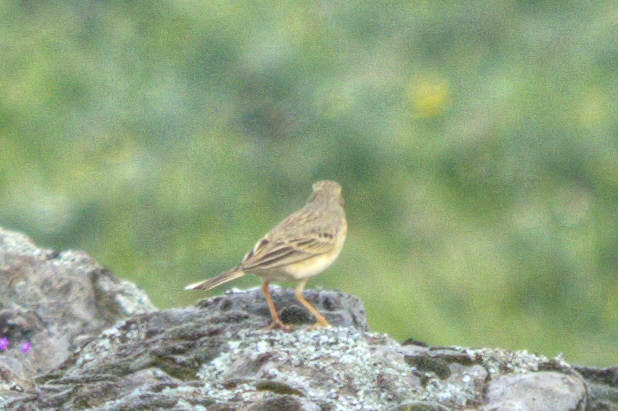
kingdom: Animalia
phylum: Chordata
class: Aves
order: Passeriformes
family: Motacillidae
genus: Anthus
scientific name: Anthus campestris
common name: Tawny pipit
